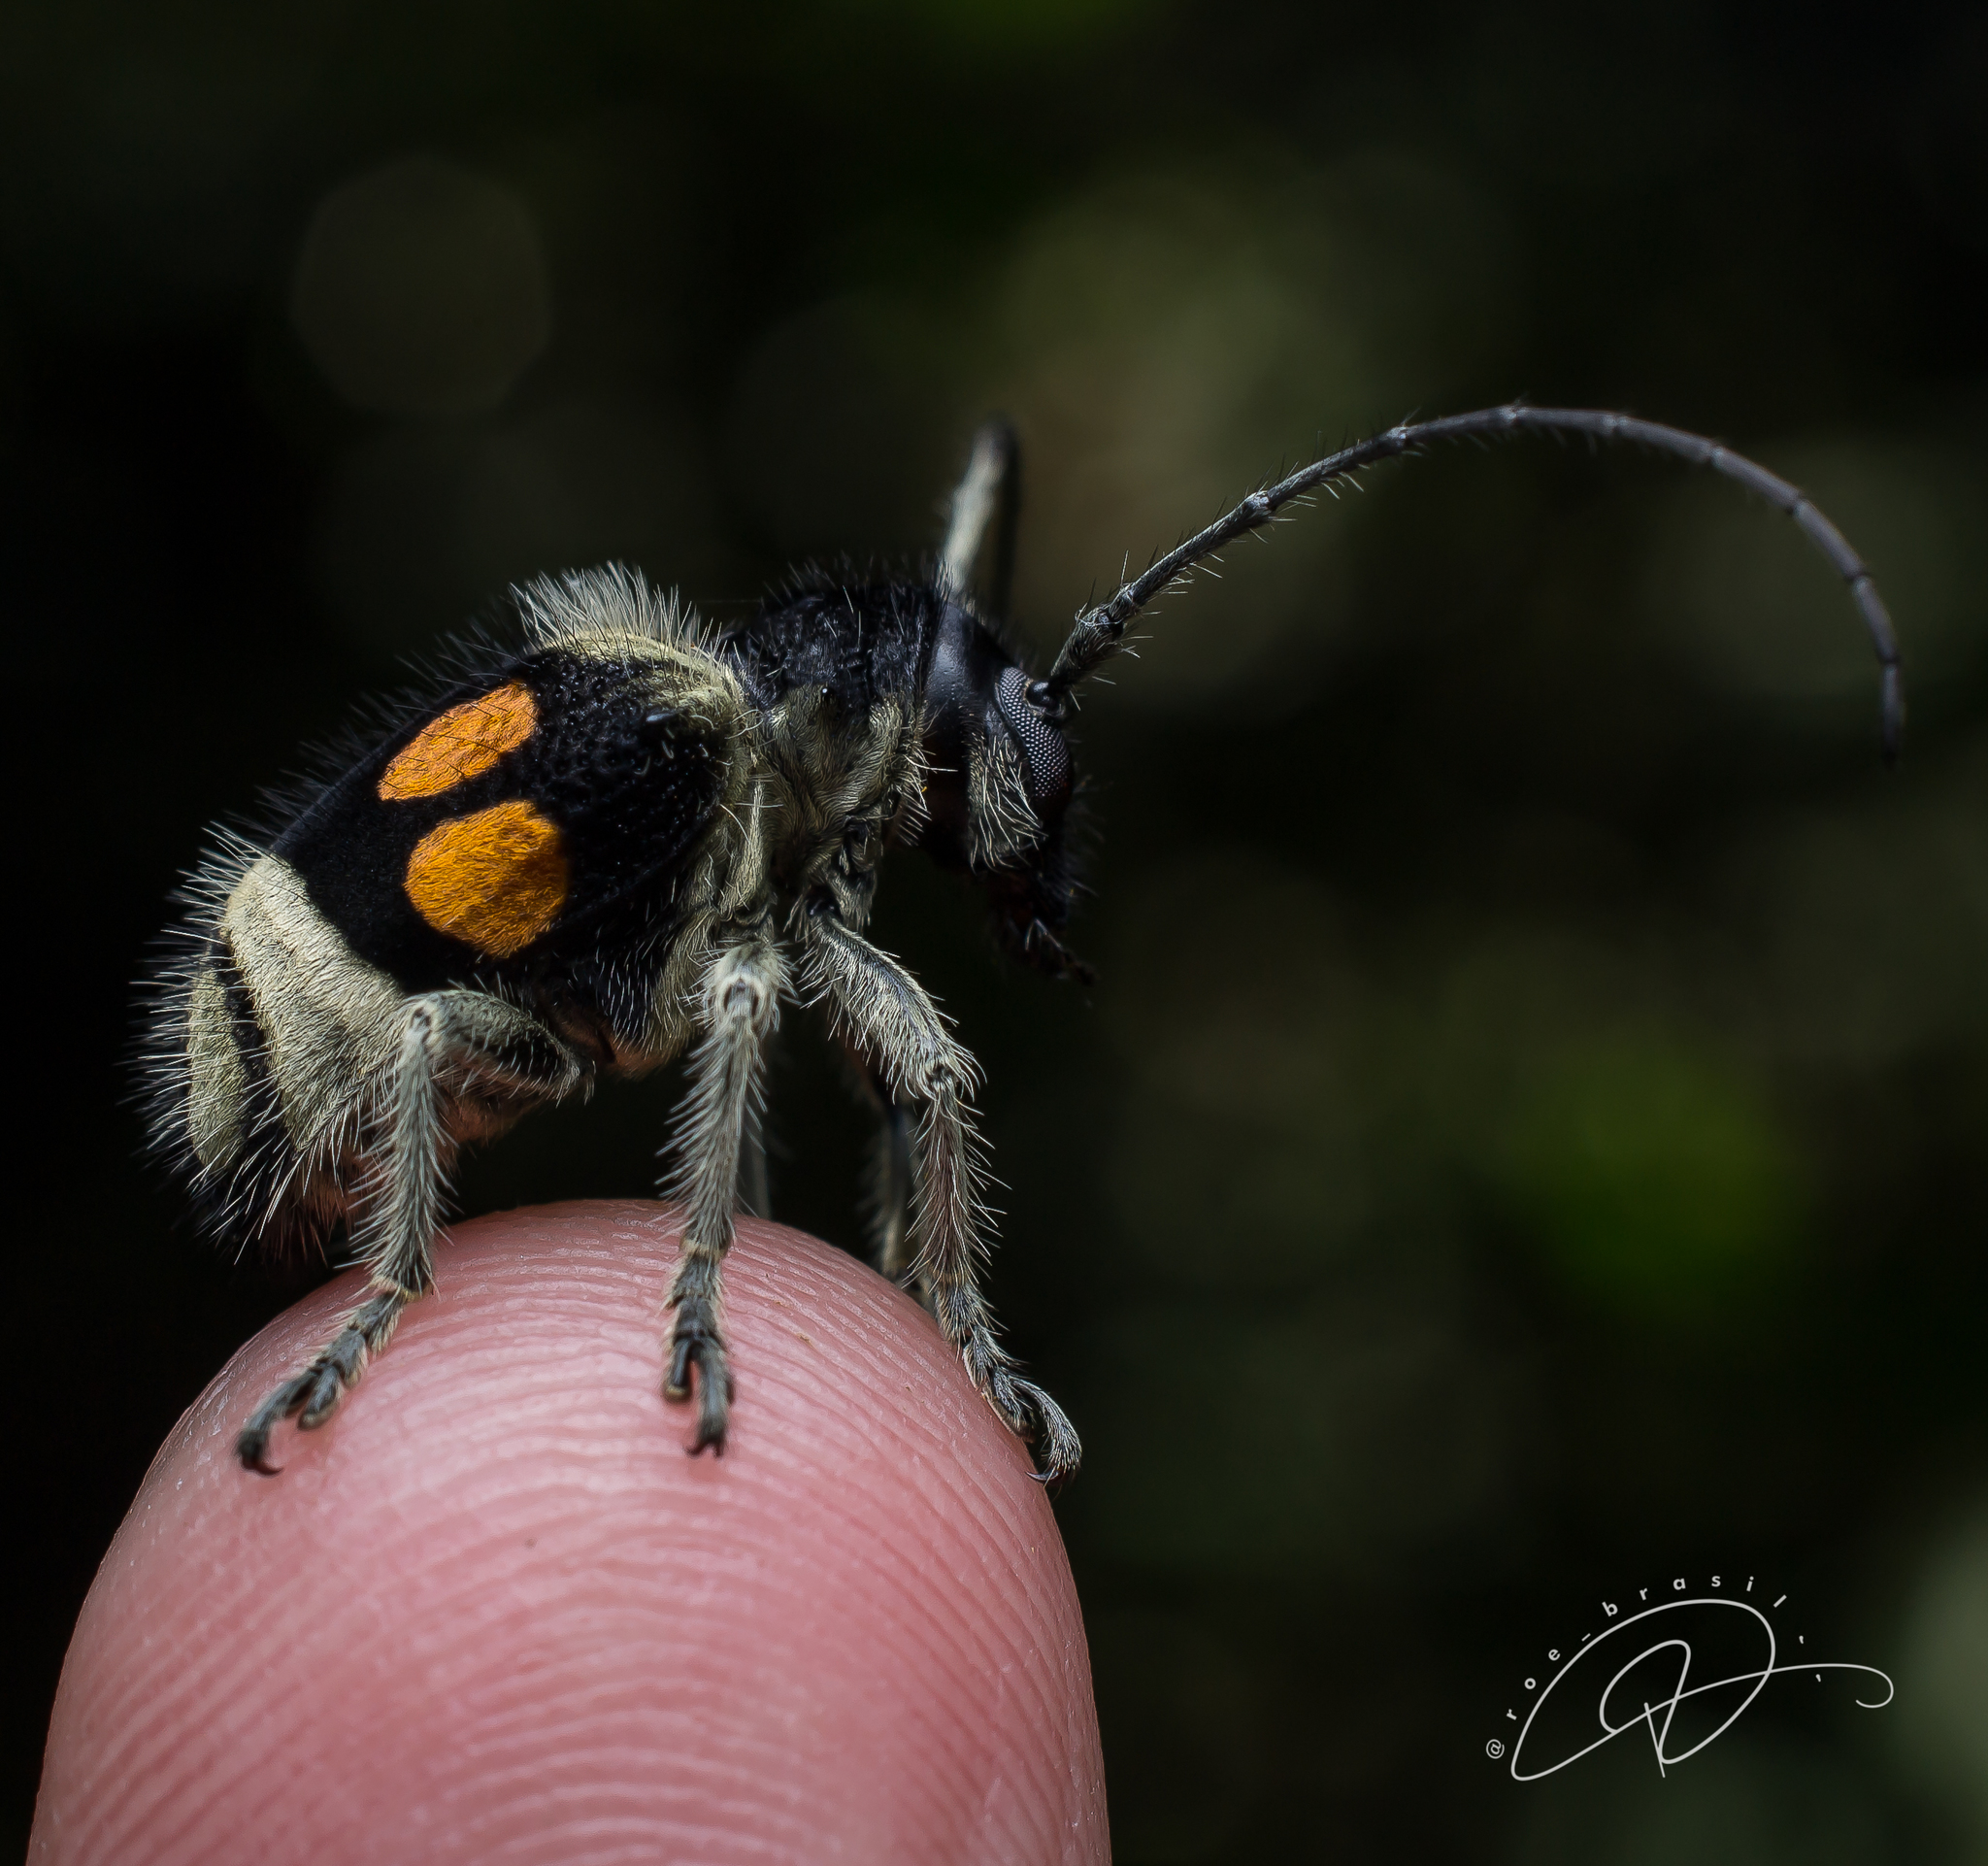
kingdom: Animalia
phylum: Arthropoda
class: Insecta
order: Coleoptera
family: Cerambycidae
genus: Compsosoma
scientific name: Compsosoma mutillarium
